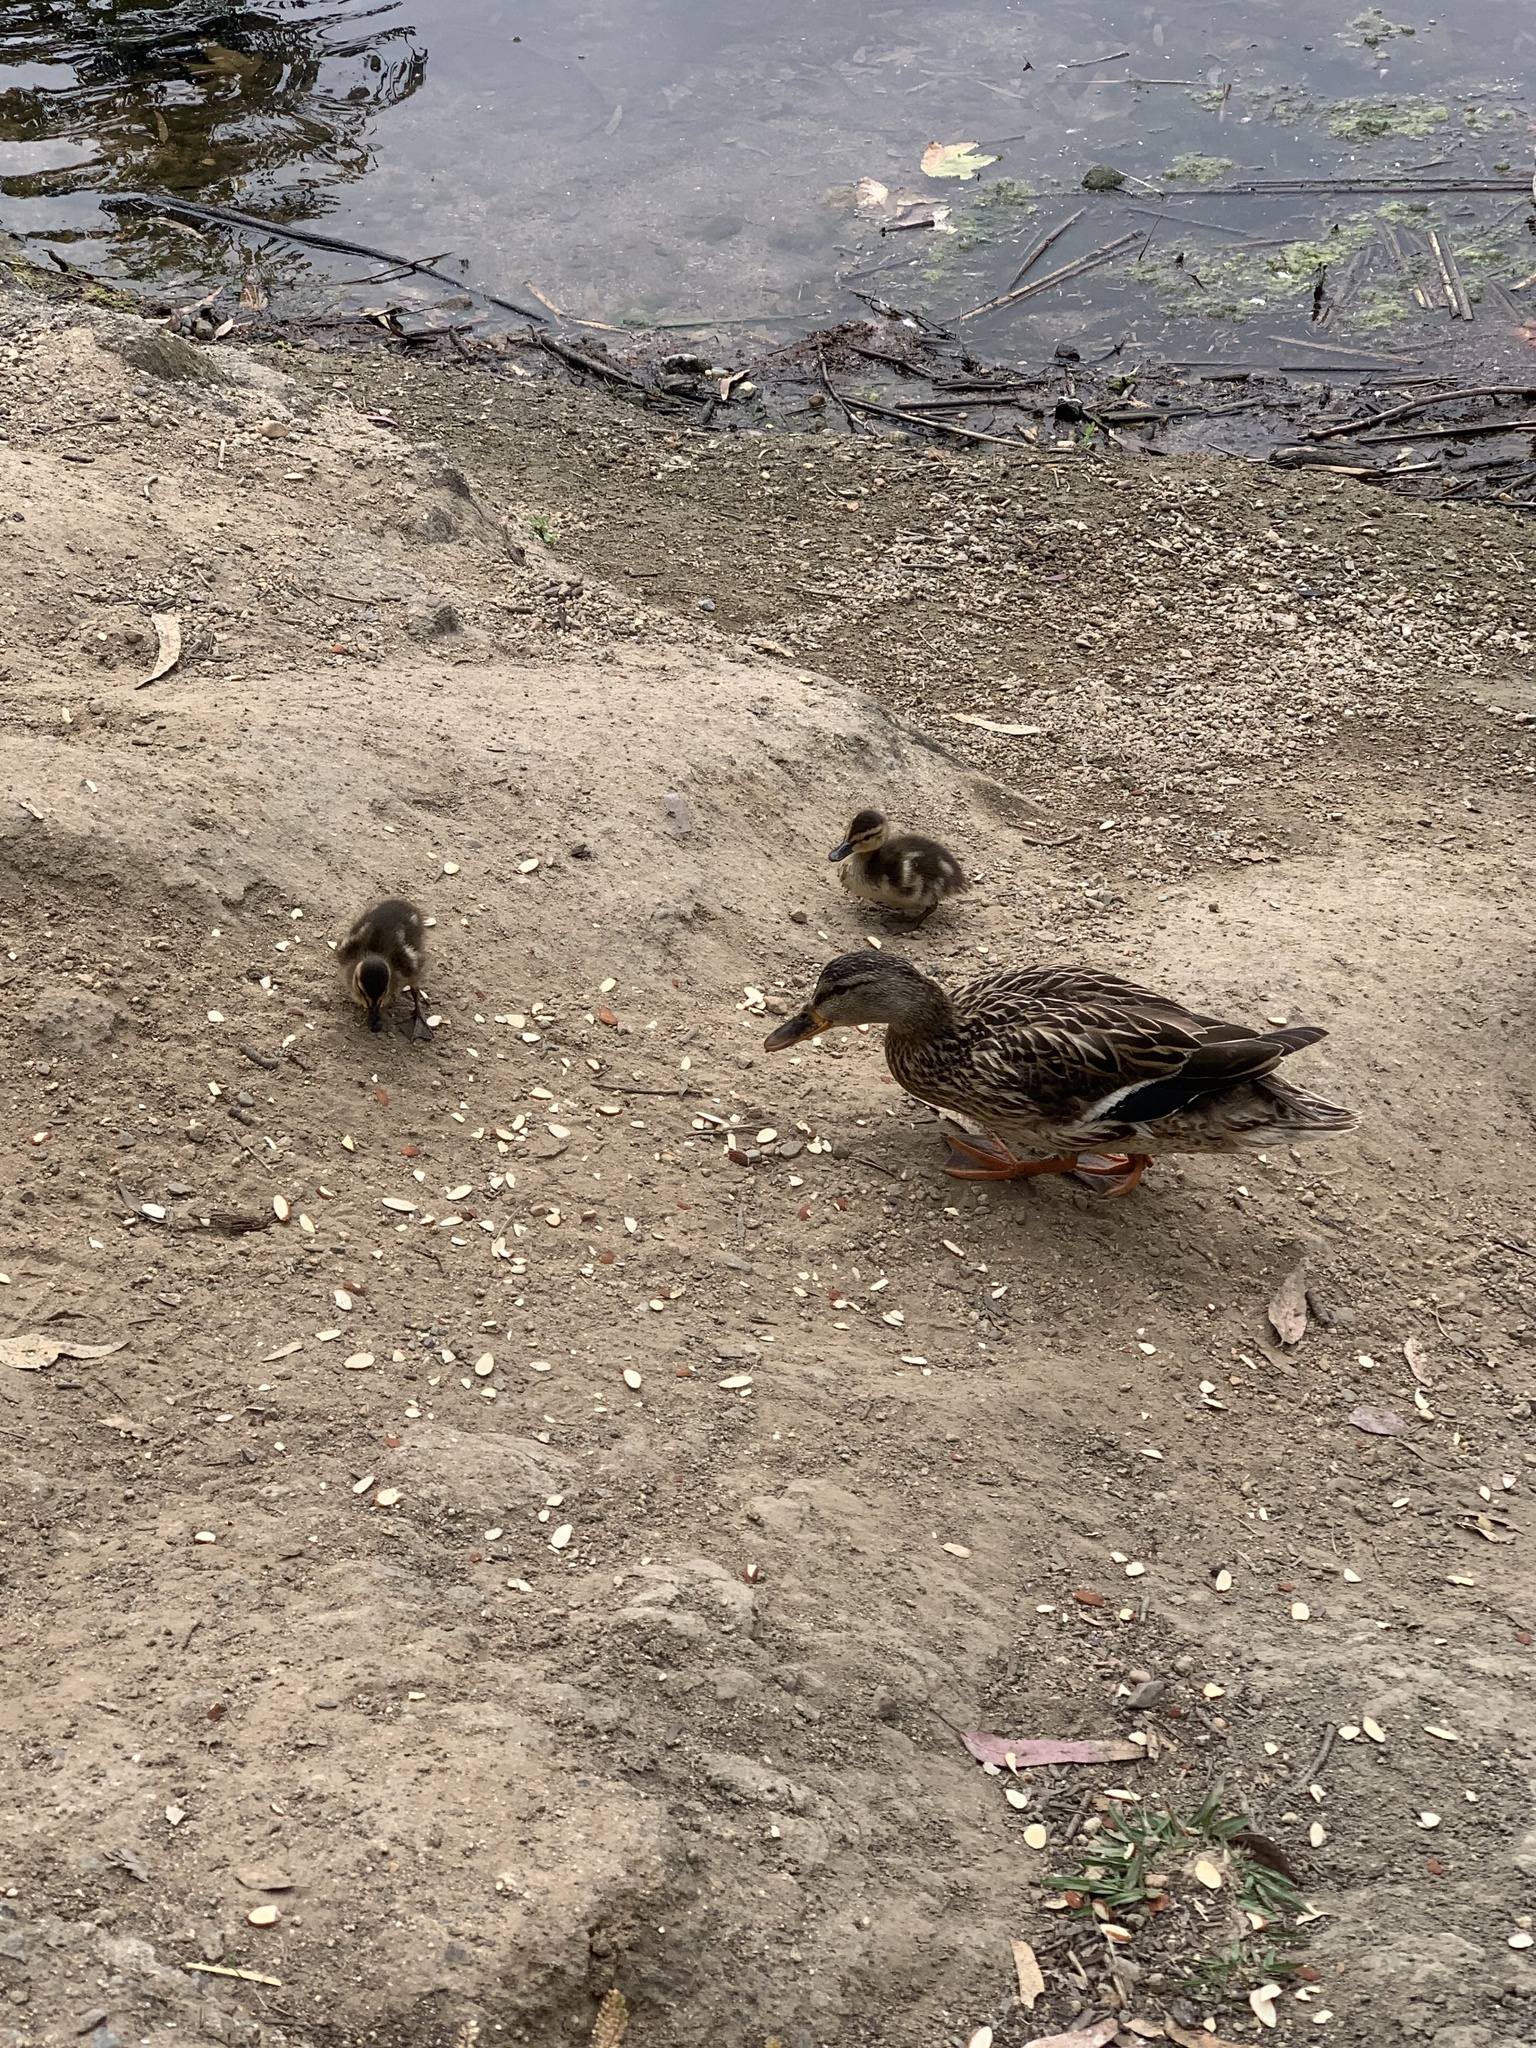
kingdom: Animalia
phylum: Chordata
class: Aves
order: Anseriformes
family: Anatidae
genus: Anas
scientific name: Anas platyrhynchos
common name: Mallard
